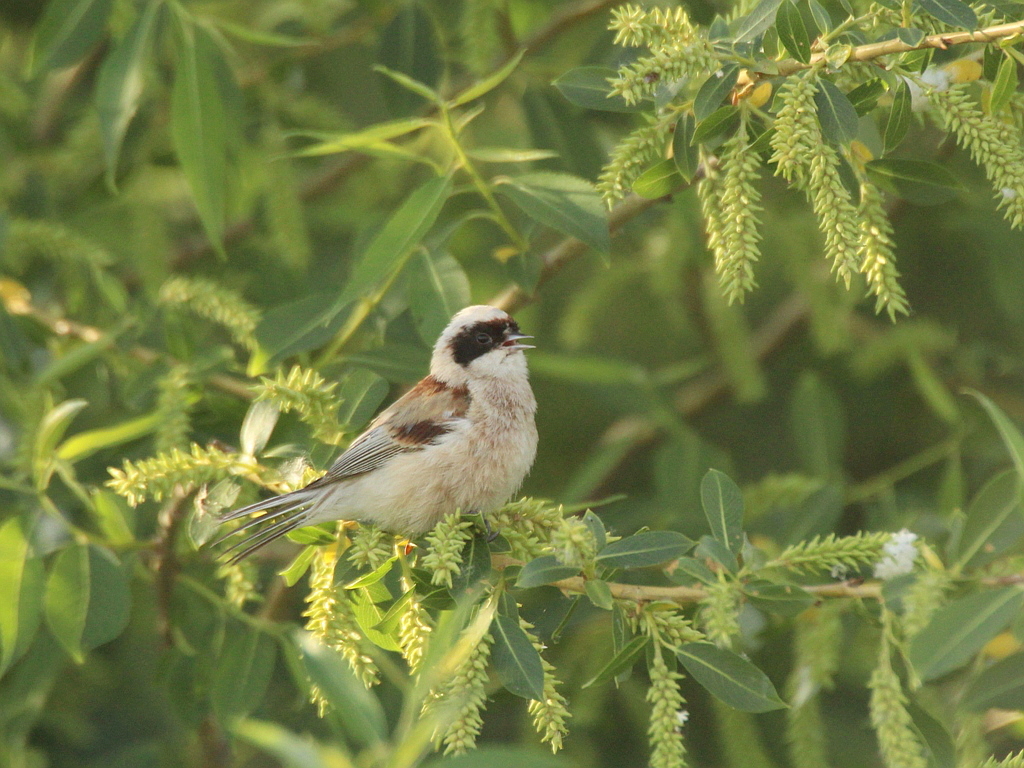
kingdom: Animalia
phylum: Chordata
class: Aves
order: Passeriformes
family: Remizidae
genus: Remiz
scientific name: Remiz pendulinus
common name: Eurasian penduline tit
